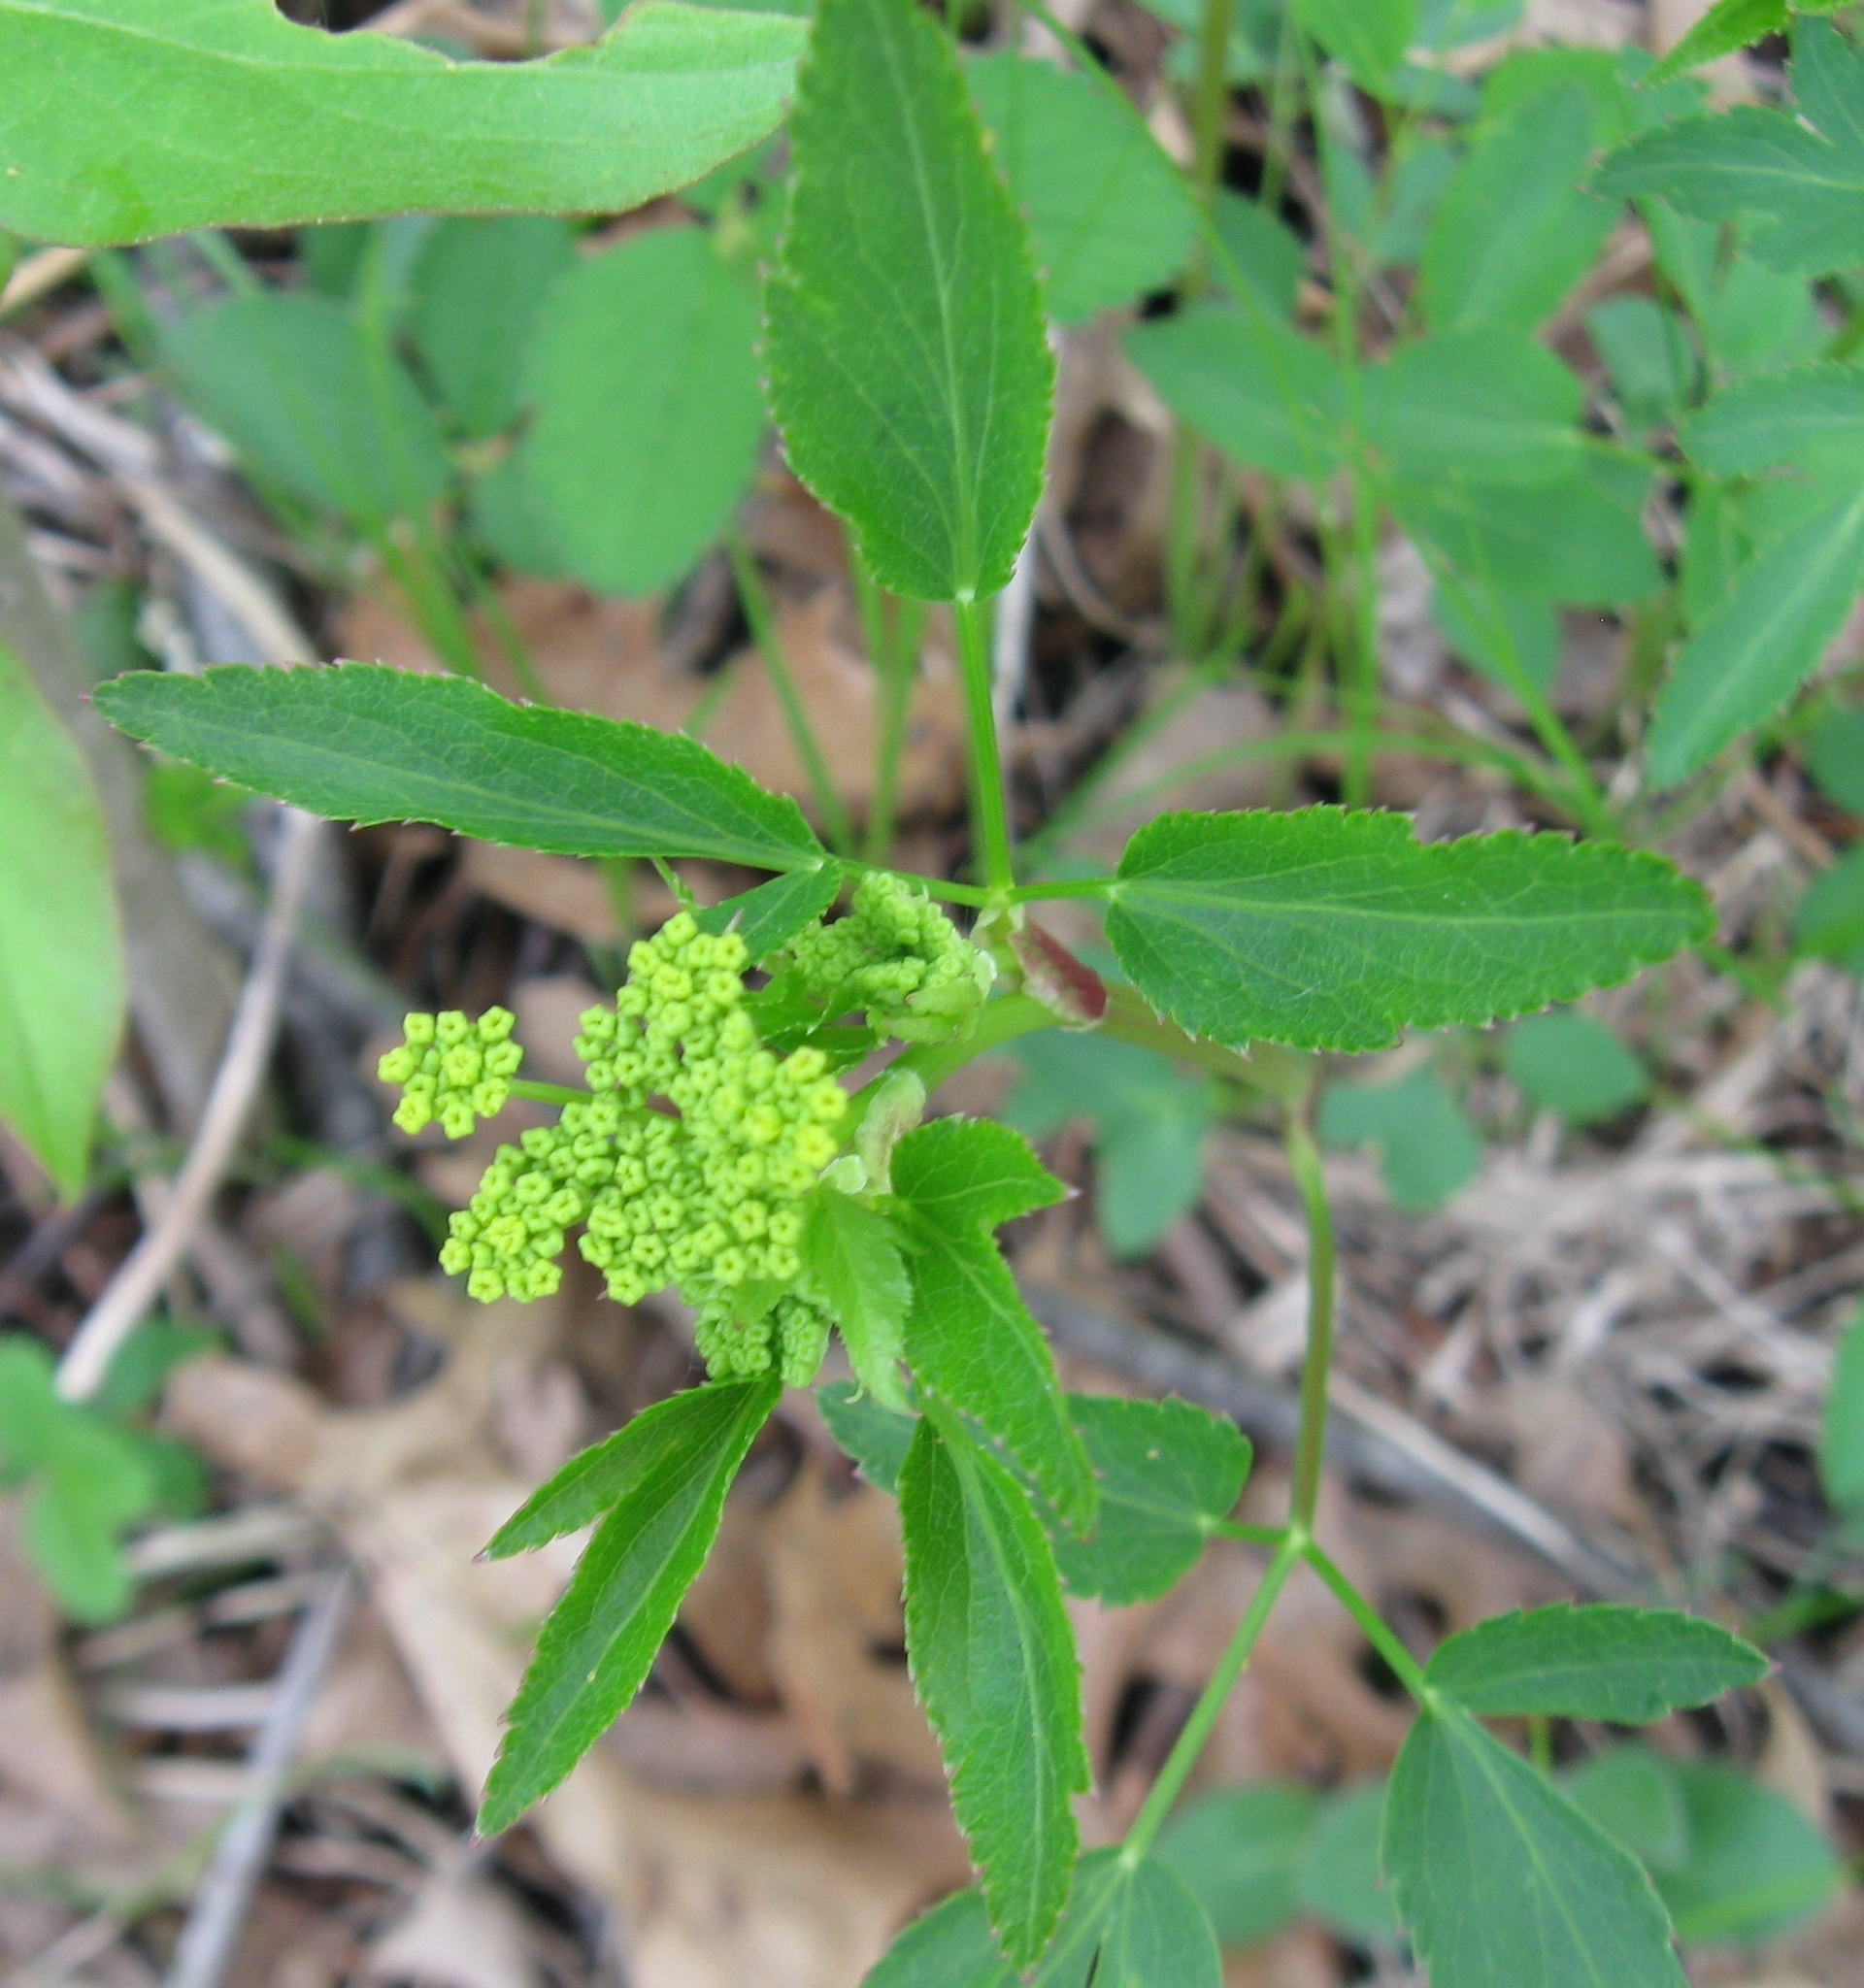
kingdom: Plantae
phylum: Tracheophyta
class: Magnoliopsida
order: Apiales
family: Apiaceae
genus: Zizia
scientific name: Zizia aurea
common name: Golden alexanders
